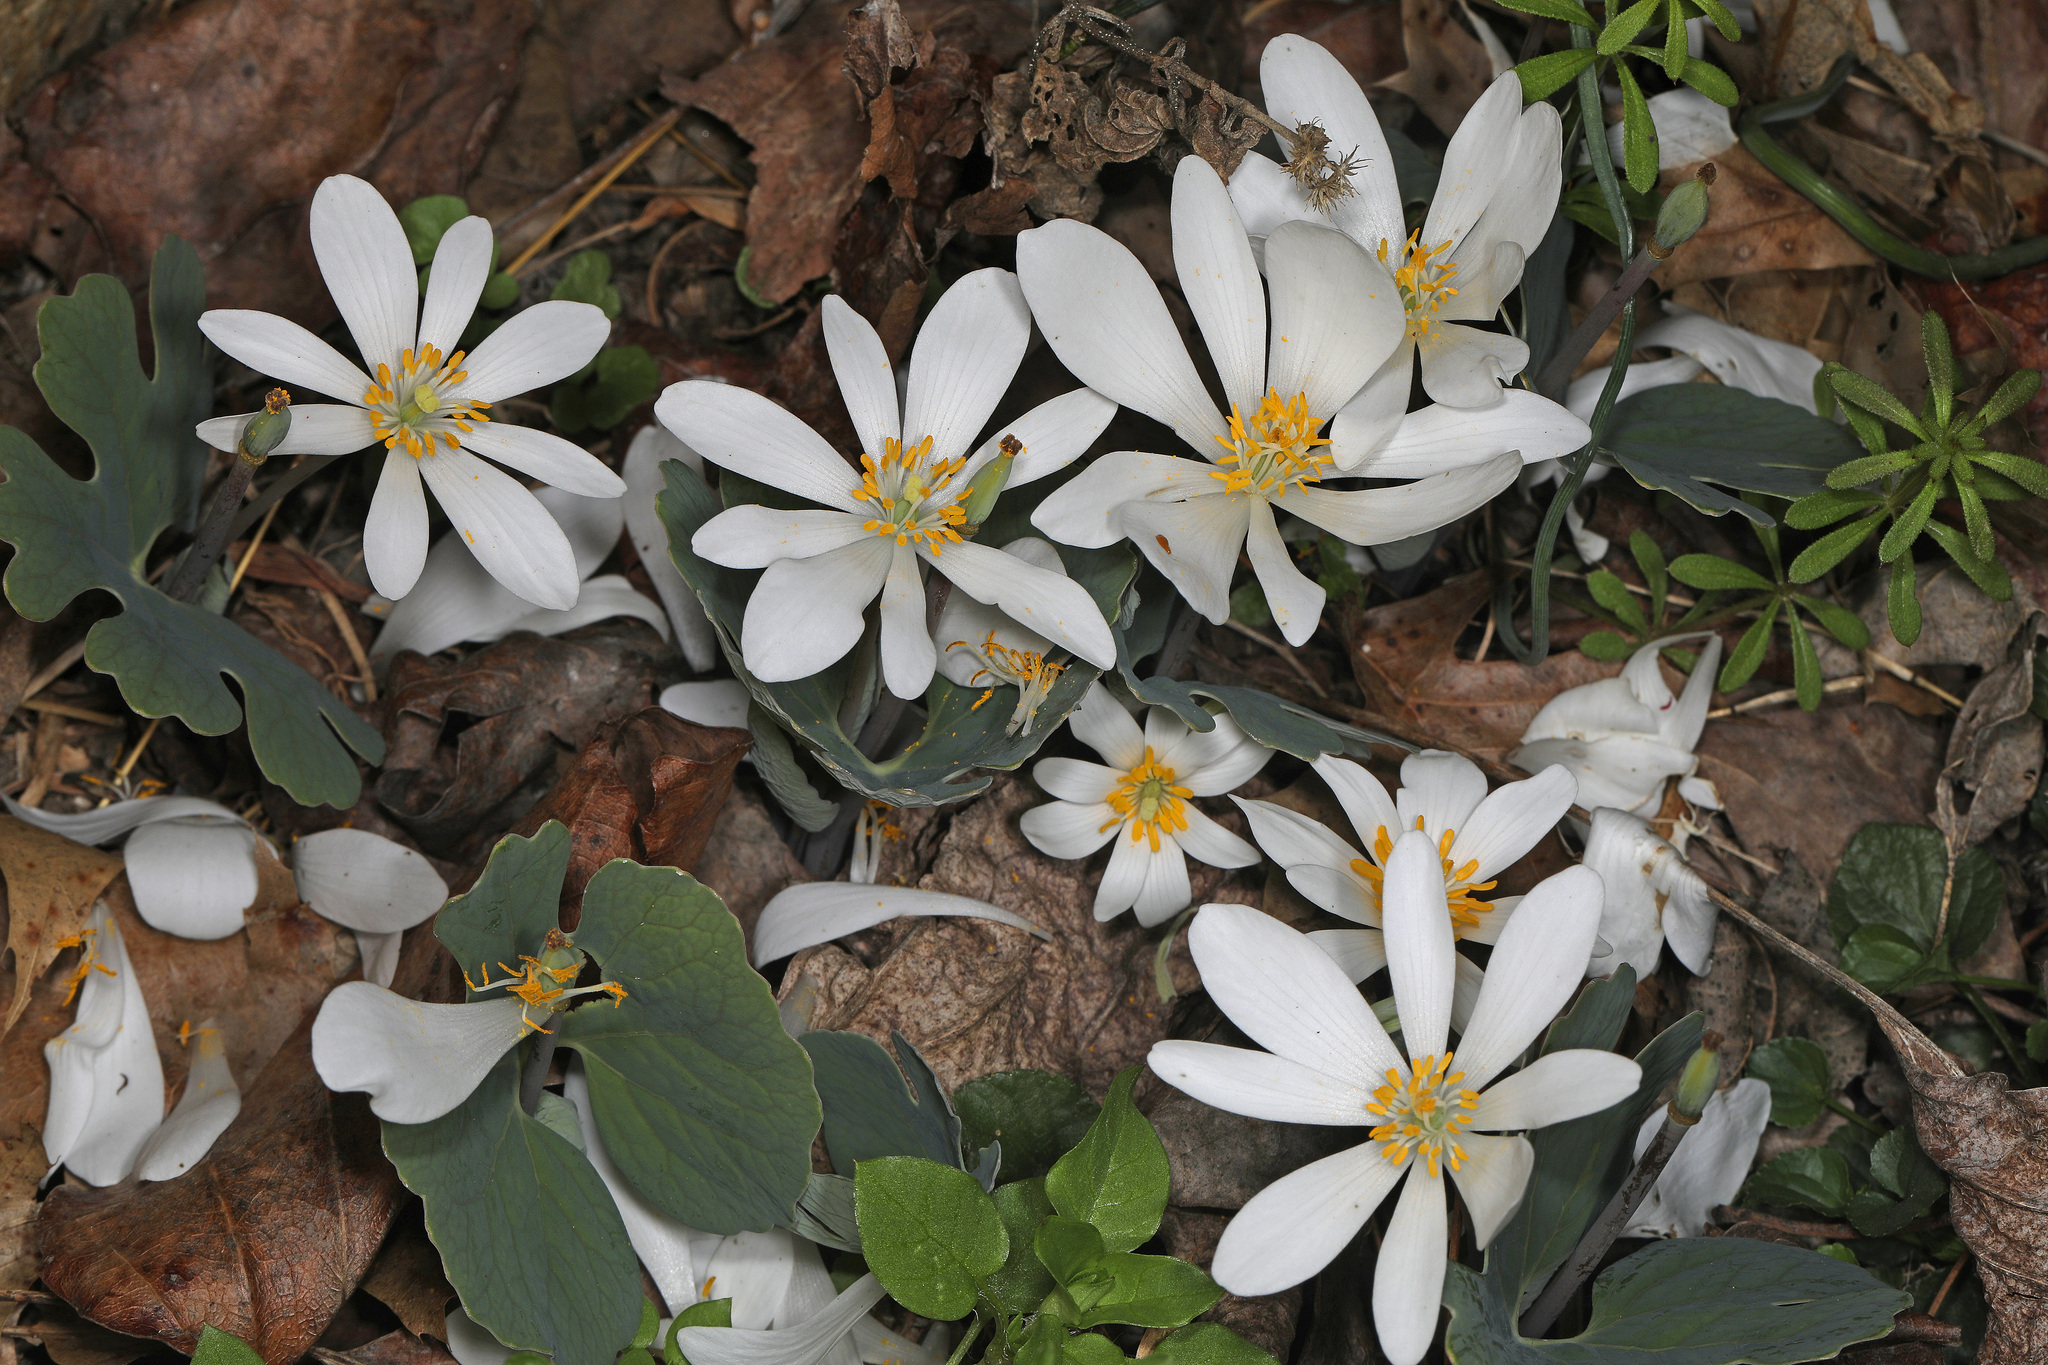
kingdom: Plantae
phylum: Tracheophyta
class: Magnoliopsida
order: Ranunculales
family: Papaveraceae
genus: Sanguinaria
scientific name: Sanguinaria canadensis
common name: Bloodroot
